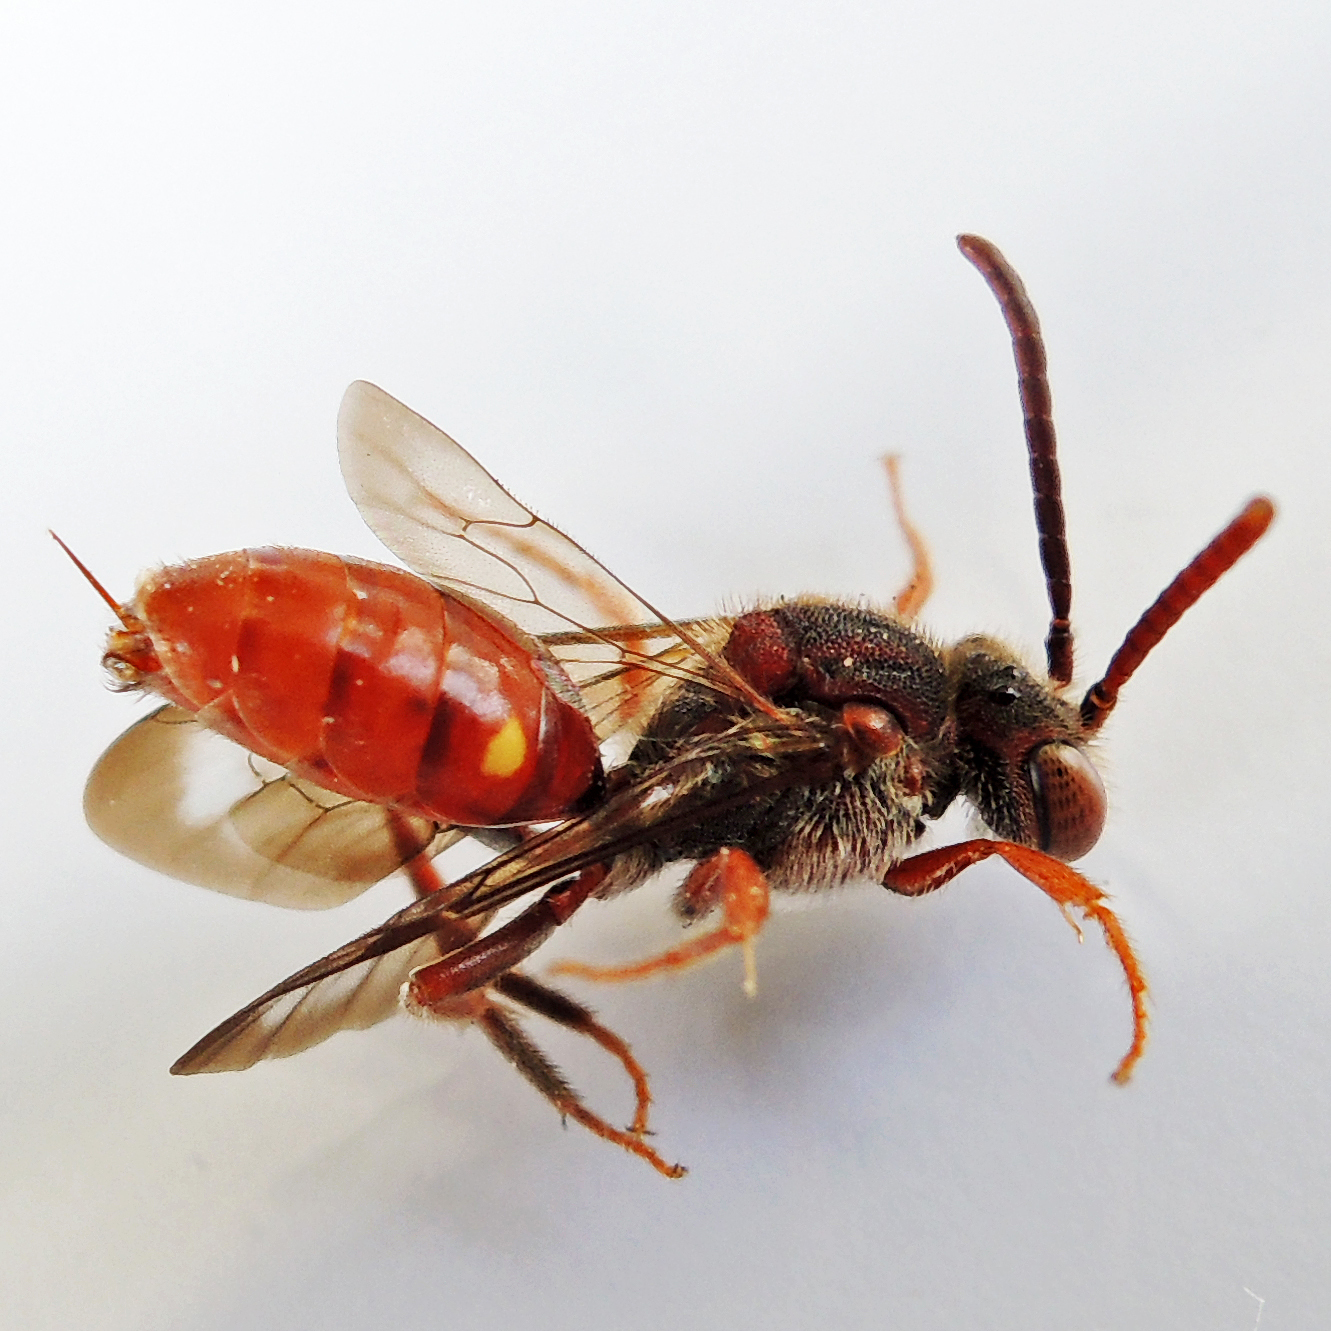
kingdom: Animalia
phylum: Arthropoda
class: Insecta
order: Hymenoptera
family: Apidae
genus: Nomada
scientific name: Nomada
